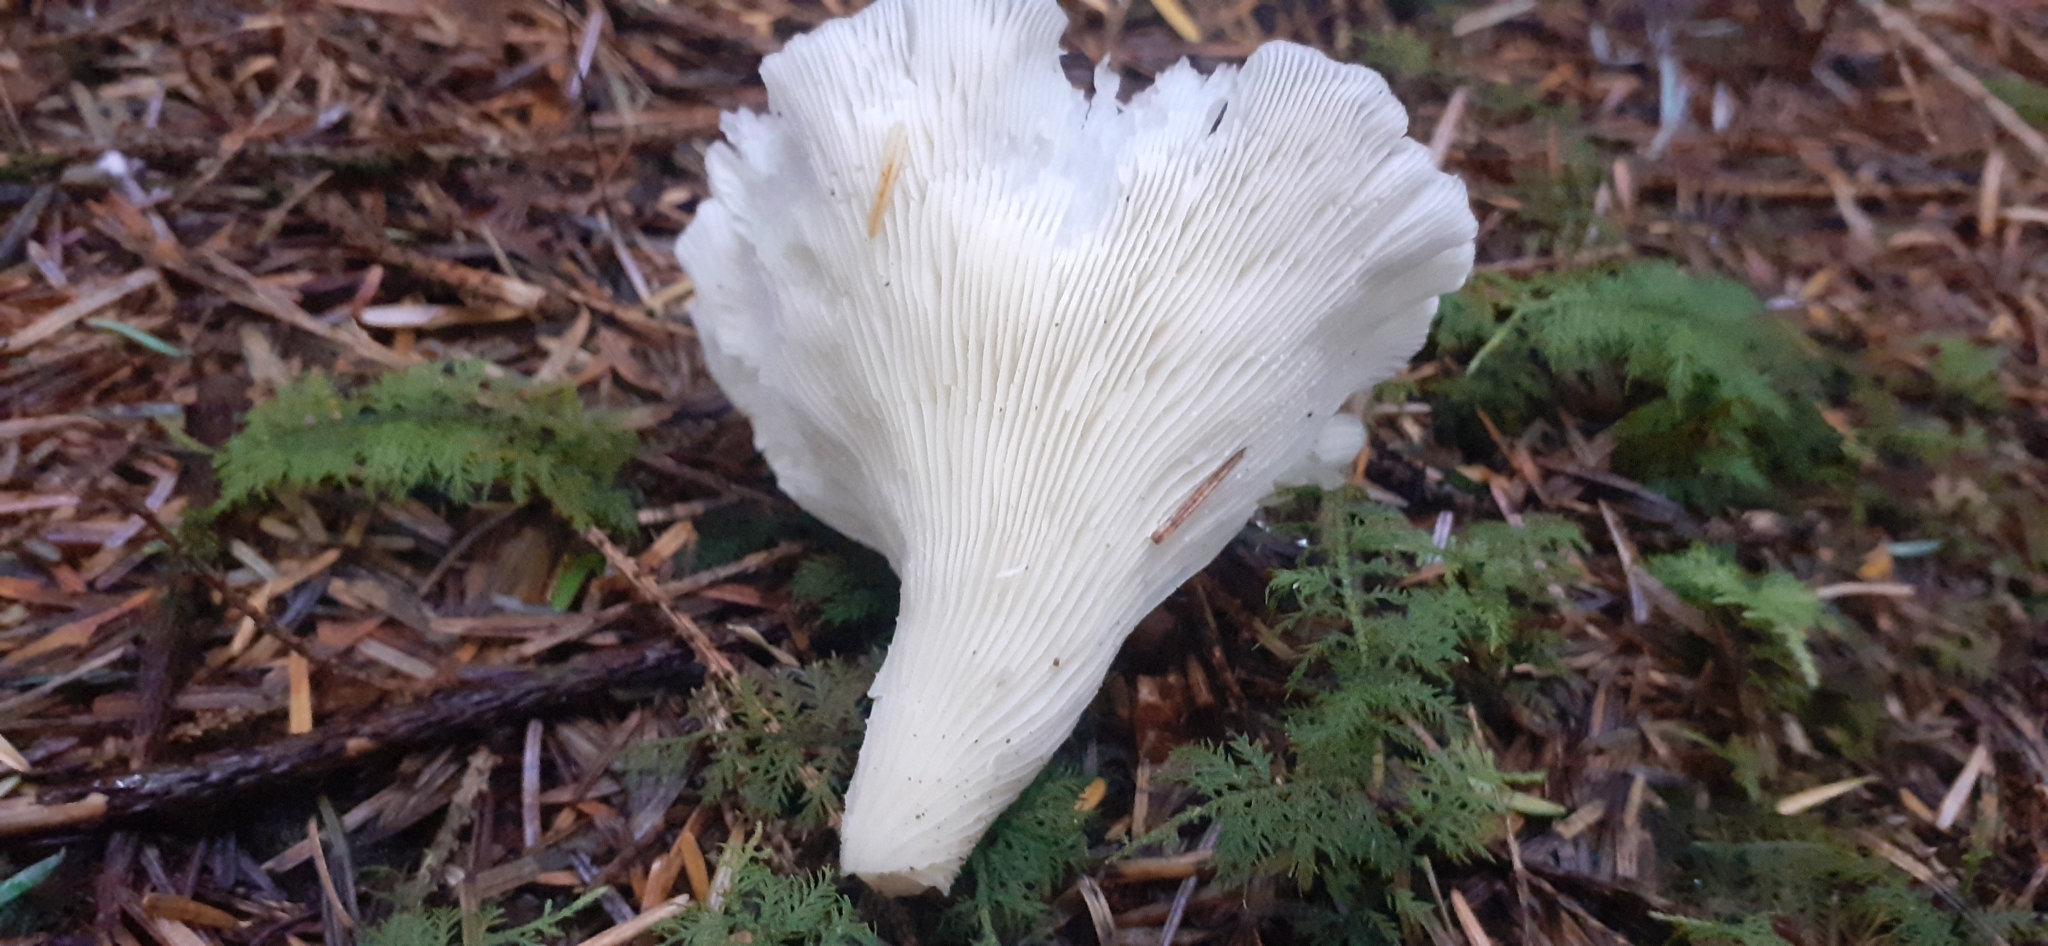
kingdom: Fungi
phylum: Basidiomycota
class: Agaricomycetes
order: Agaricales
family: Marasmiaceae
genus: Pleurocybella
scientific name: Pleurocybella porrigens
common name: Angel's wings
